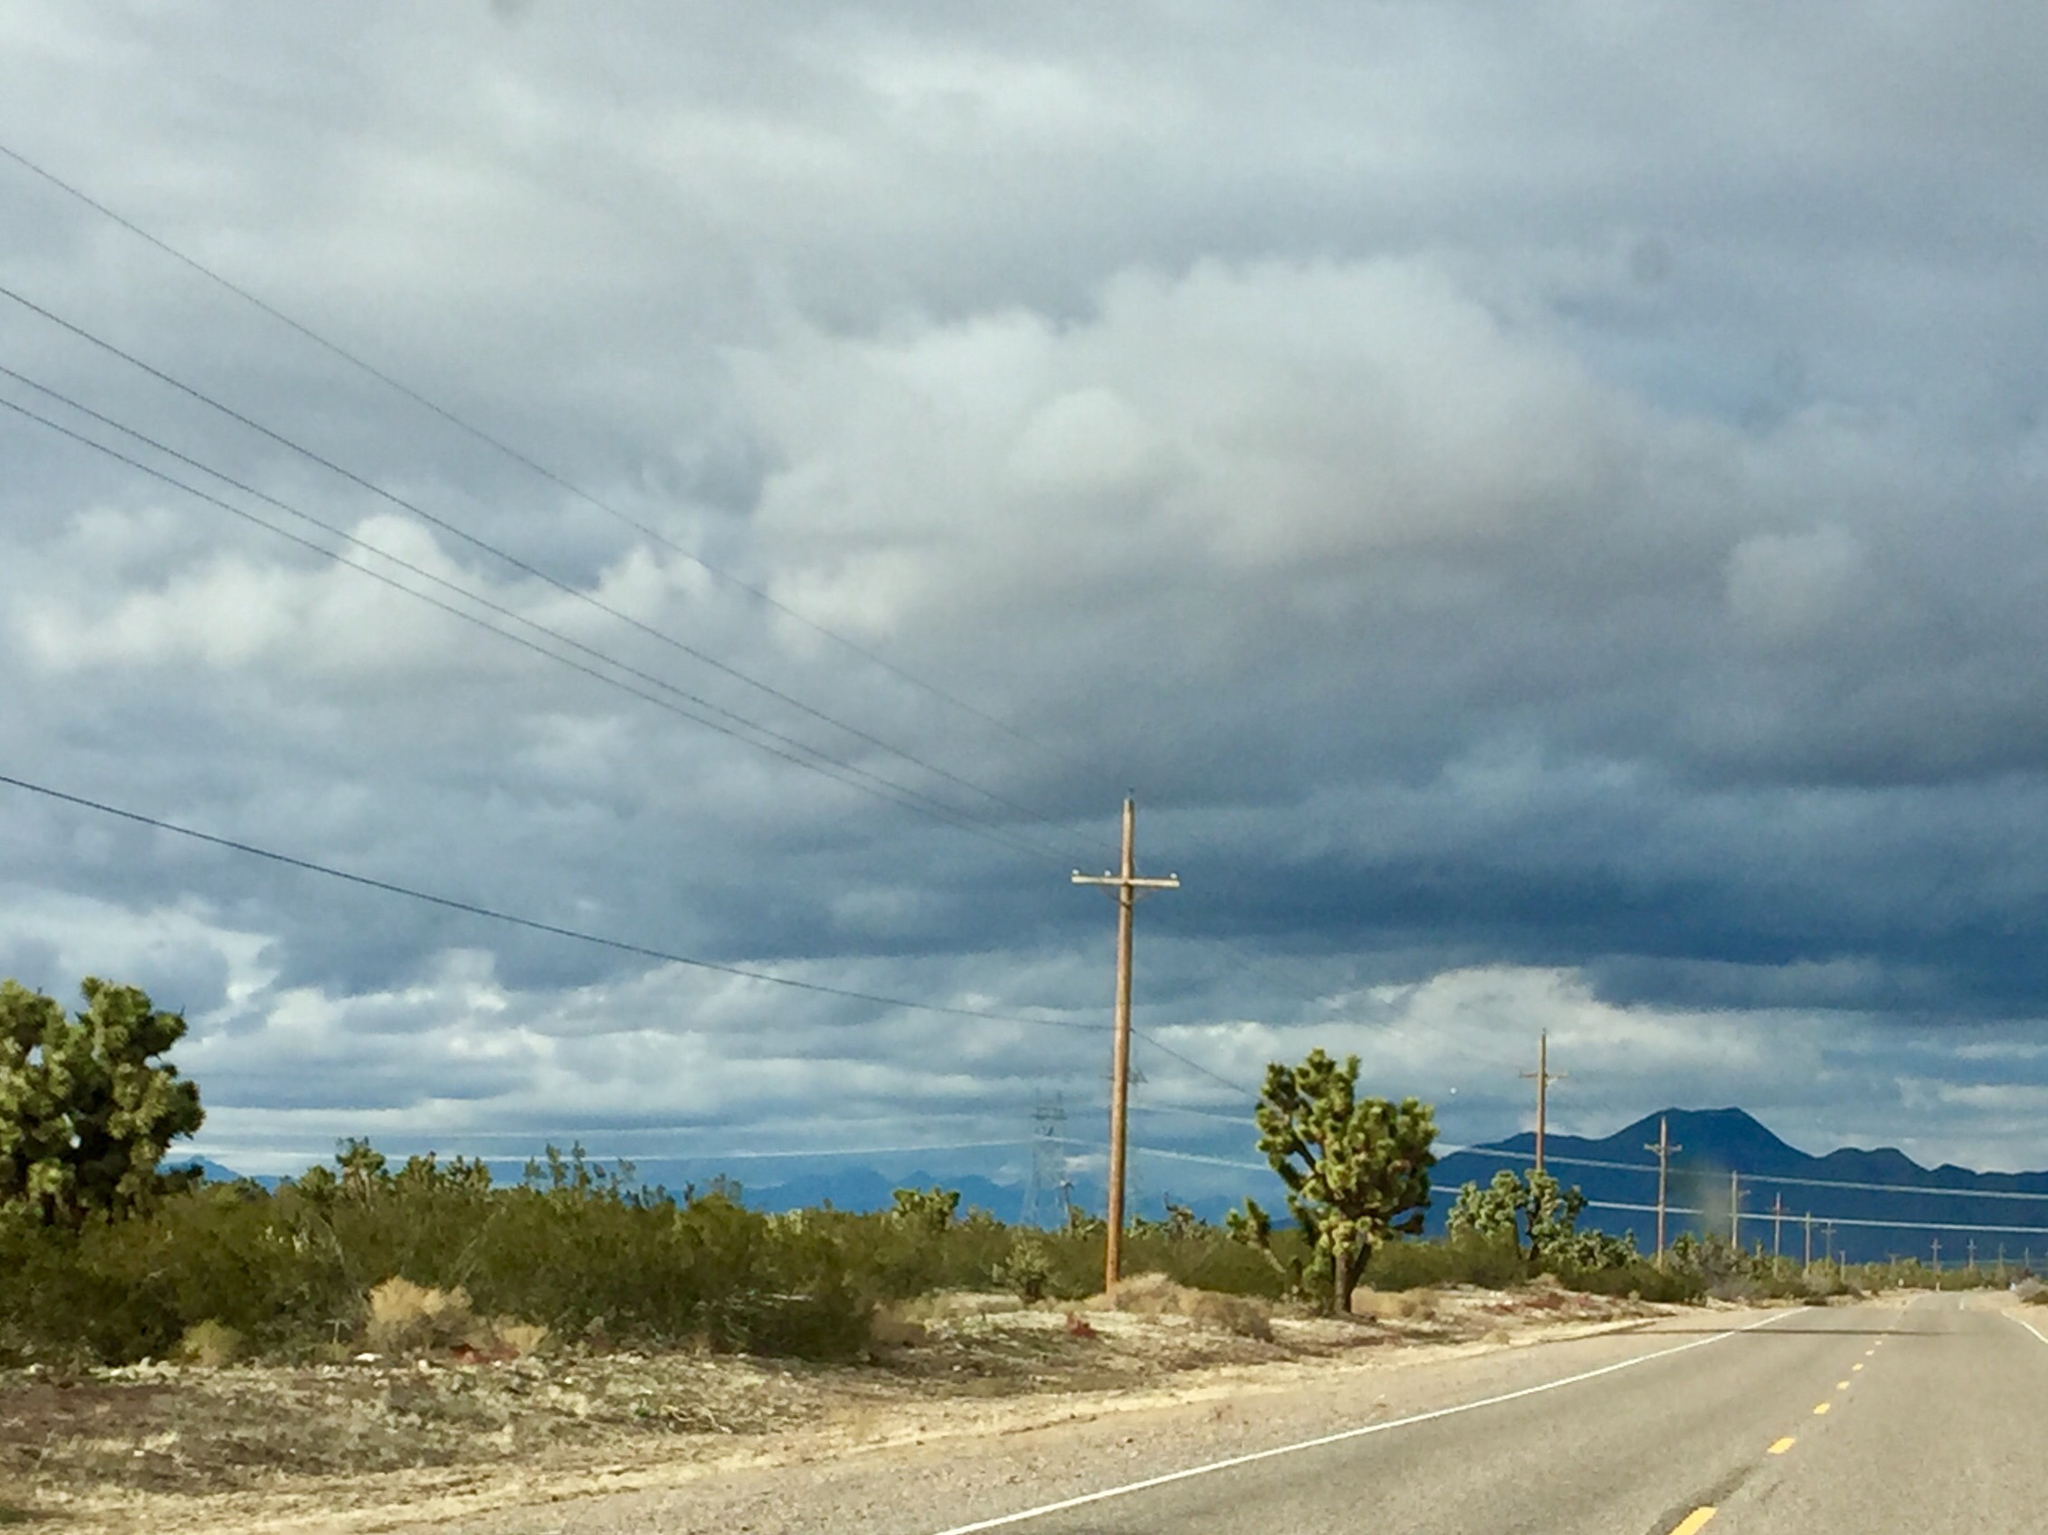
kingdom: Plantae
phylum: Tracheophyta
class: Liliopsida
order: Asparagales
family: Asparagaceae
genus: Yucca
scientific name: Yucca brevifolia
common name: Joshua tree
